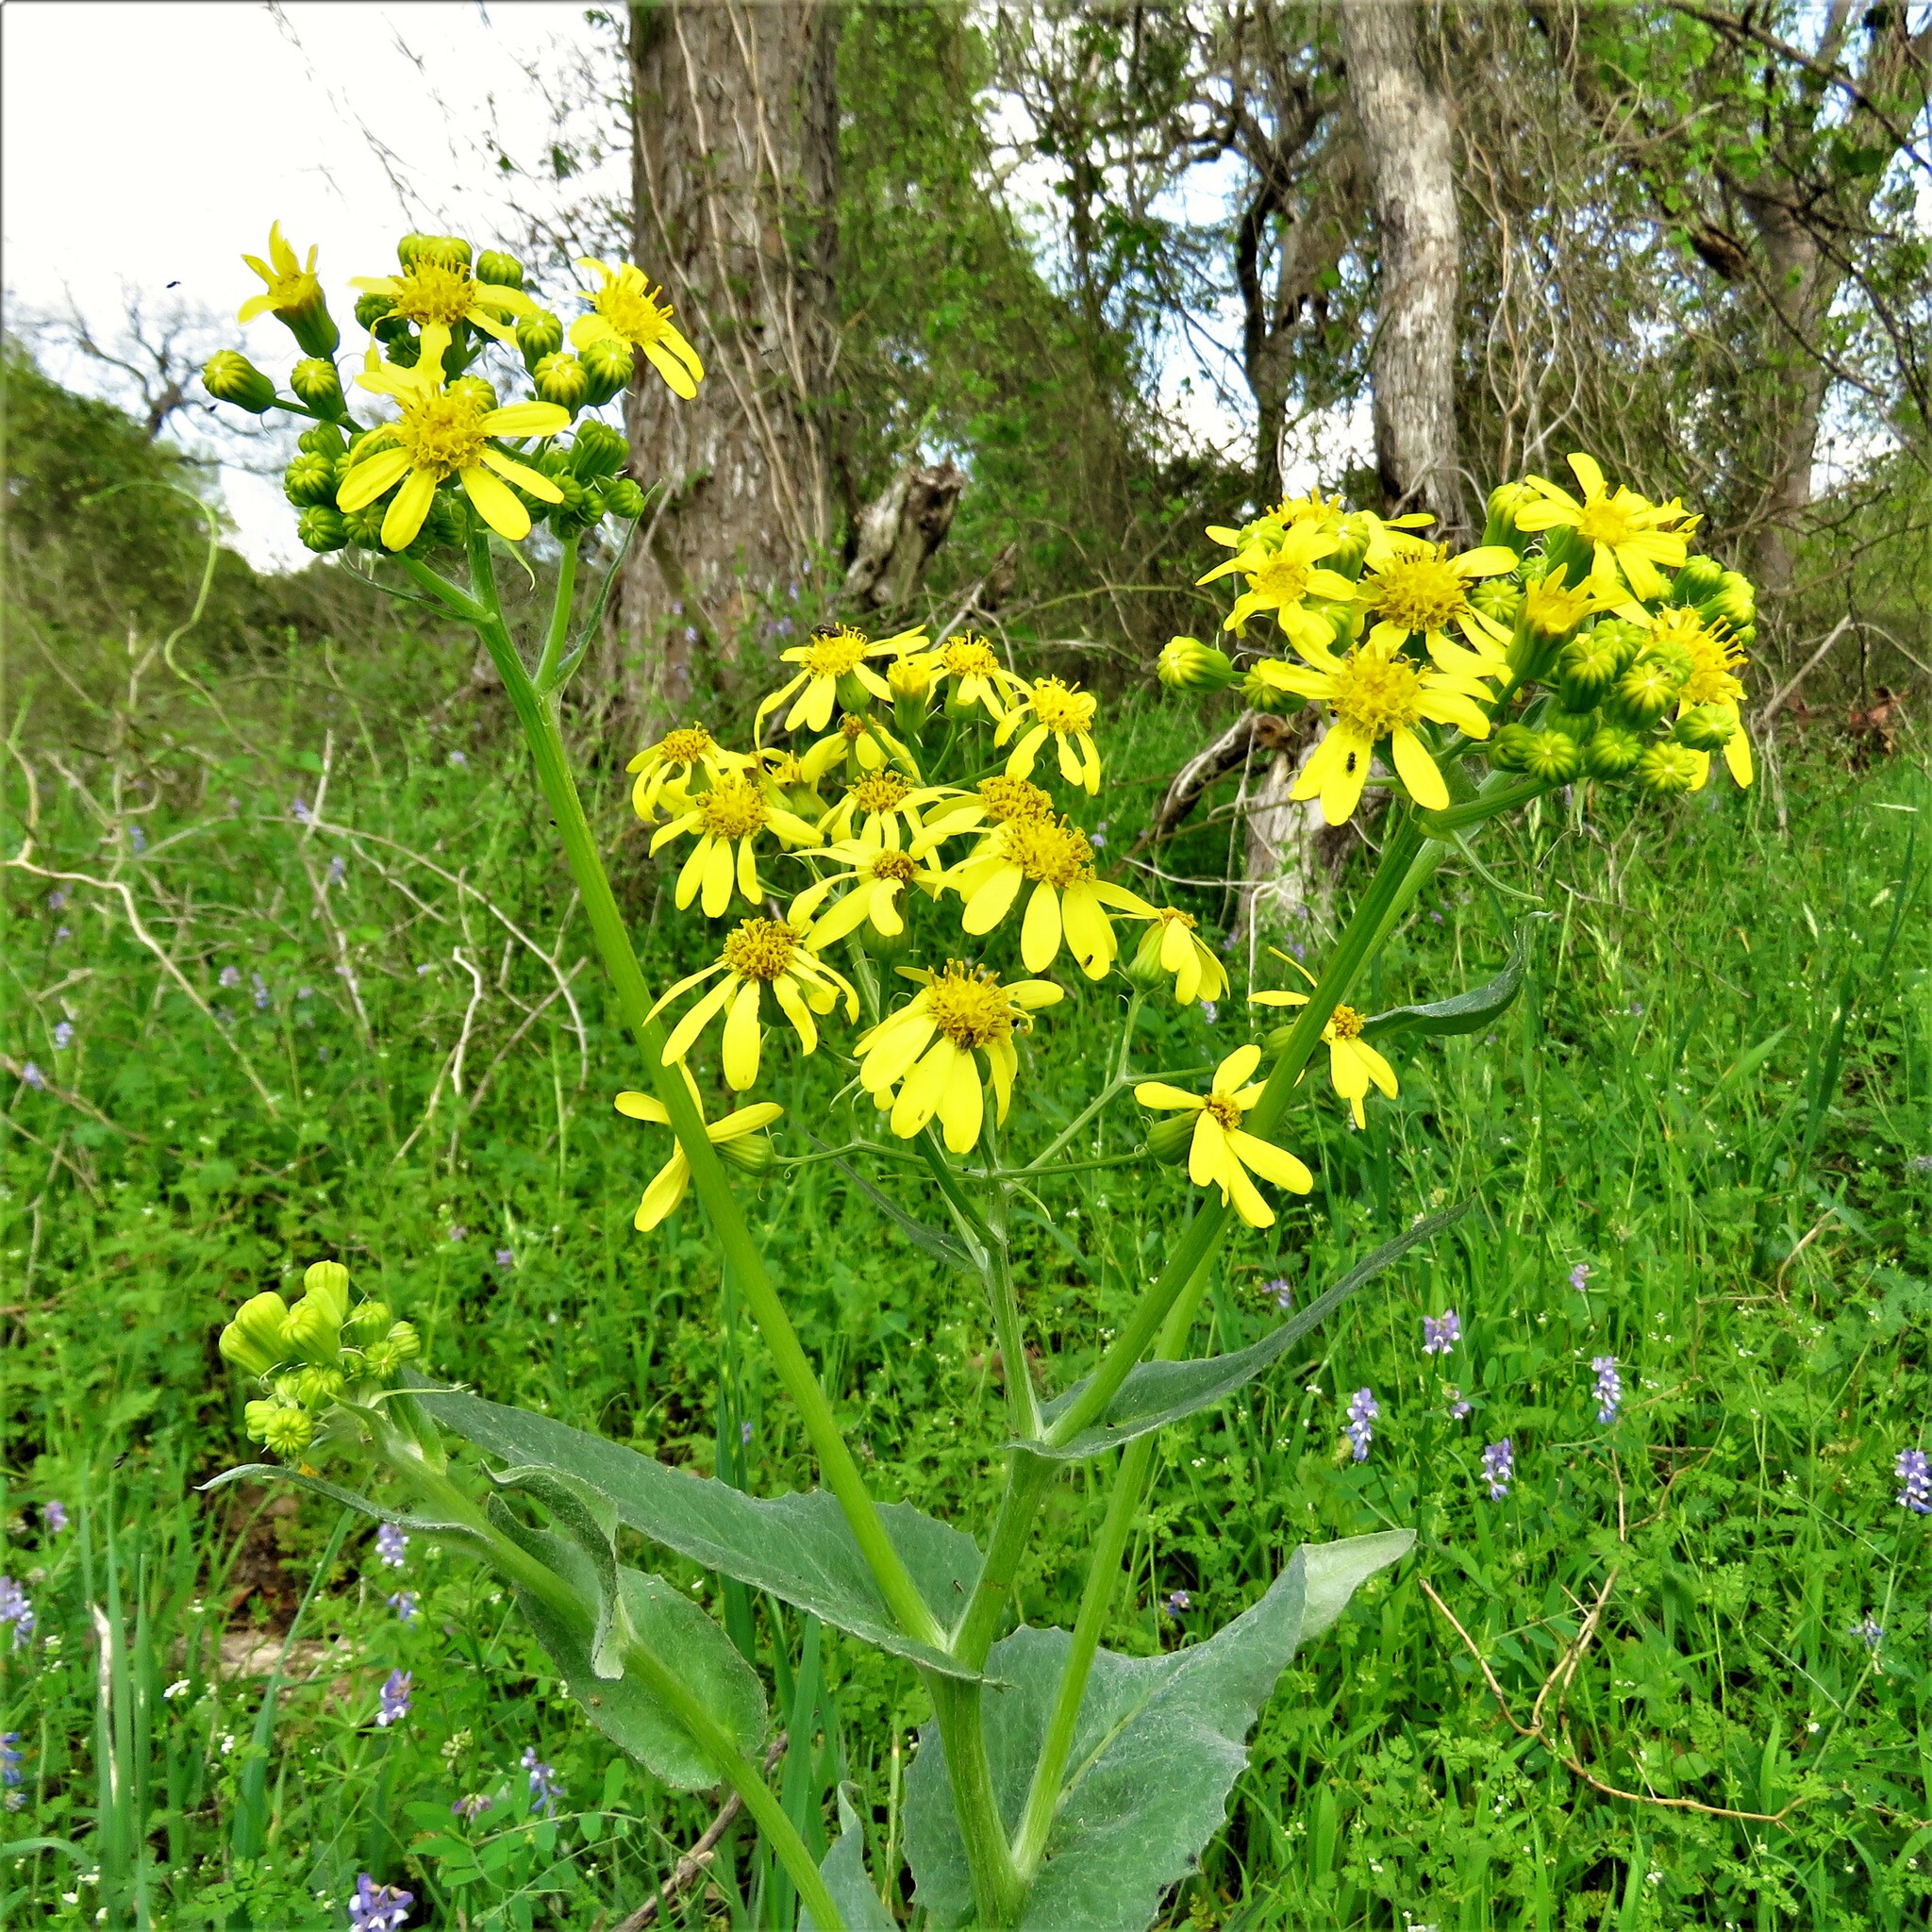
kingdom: Plantae
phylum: Tracheophyta
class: Magnoliopsida
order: Asterales
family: Asteraceae
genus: Senecio
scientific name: Senecio ampullaceus
